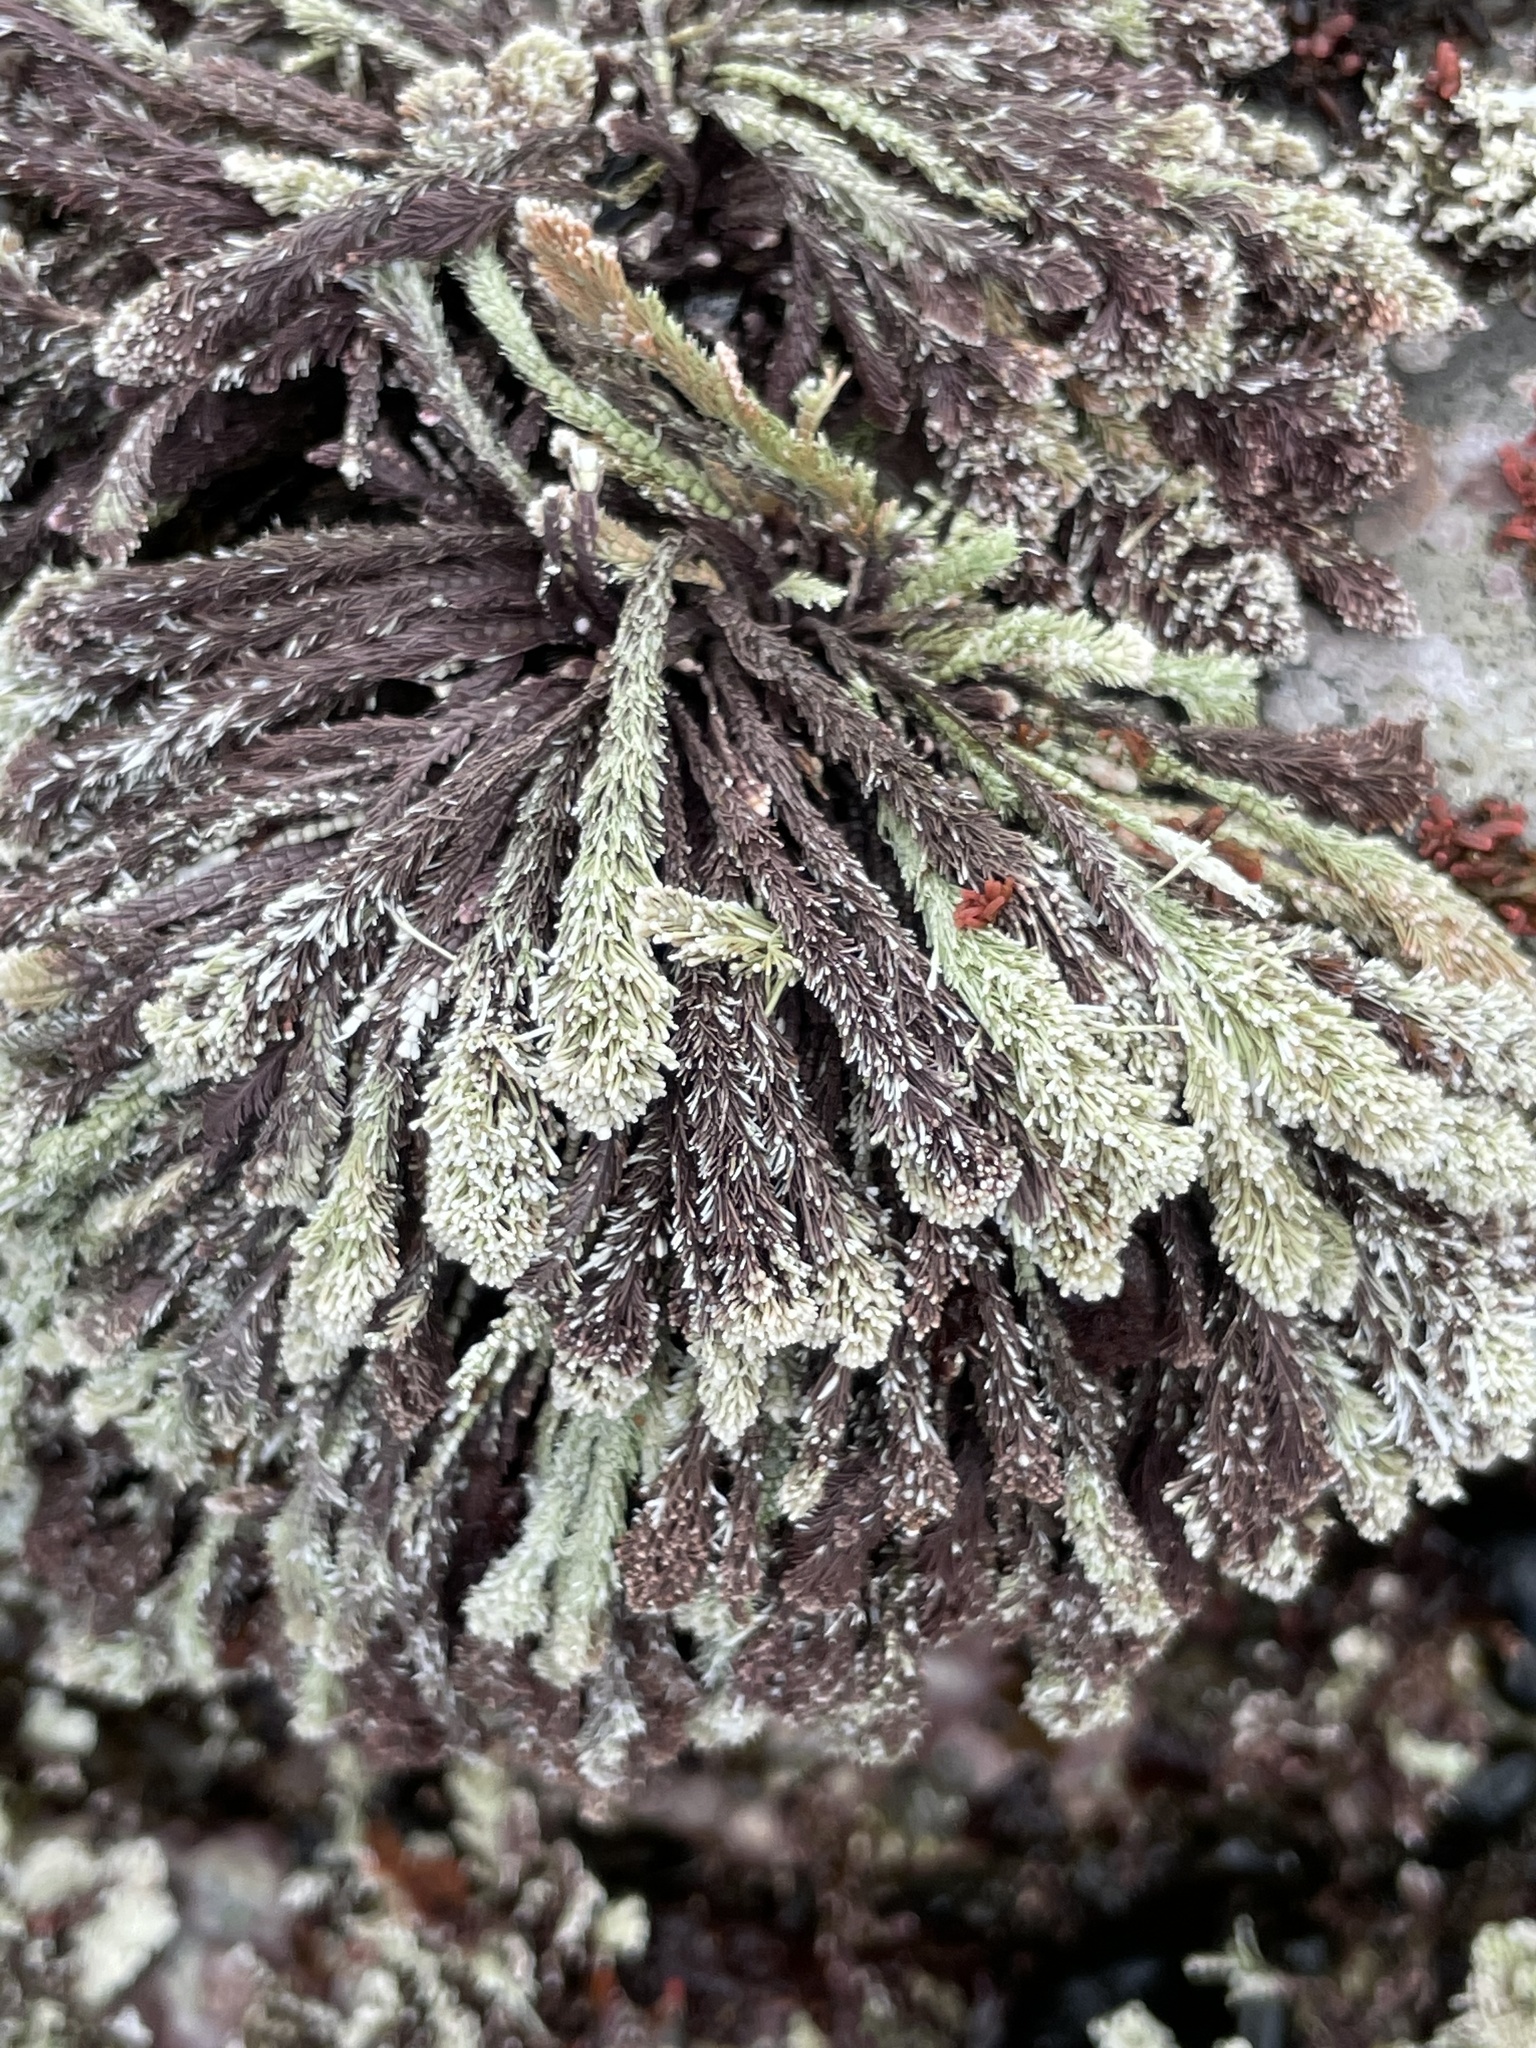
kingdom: Plantae
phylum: Rhodophyta
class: Florideophyceae
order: Corallinales
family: Corallinaceae
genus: Corallina
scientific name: Corallina vancouveriensis
